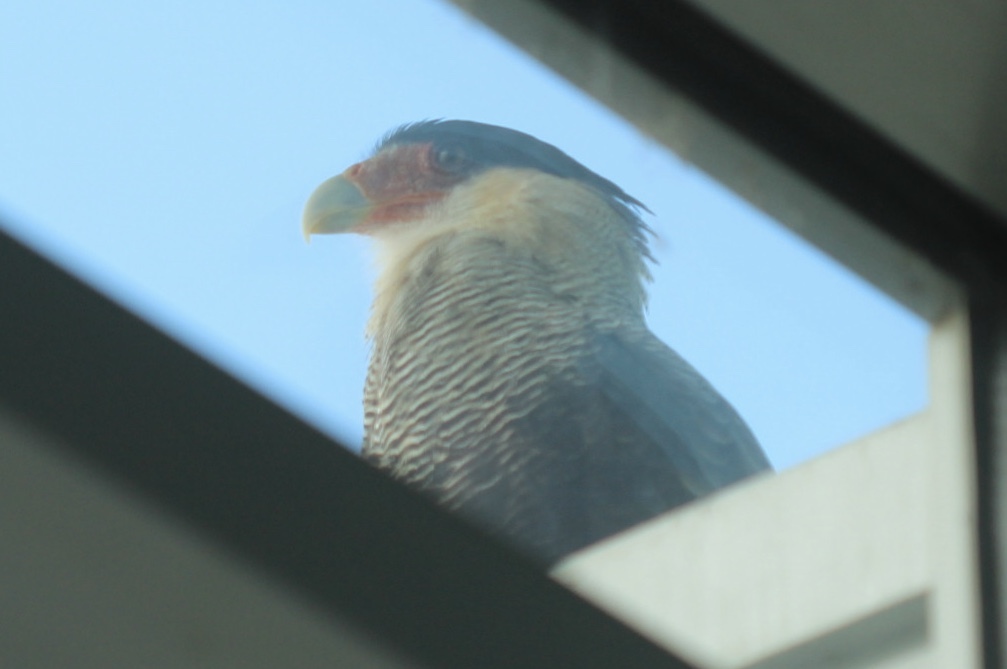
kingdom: Animalia
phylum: Chordata
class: Aves
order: Falconiformes
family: Falconidae
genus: Caracara
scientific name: Caracara plancus
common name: Southern caracara
